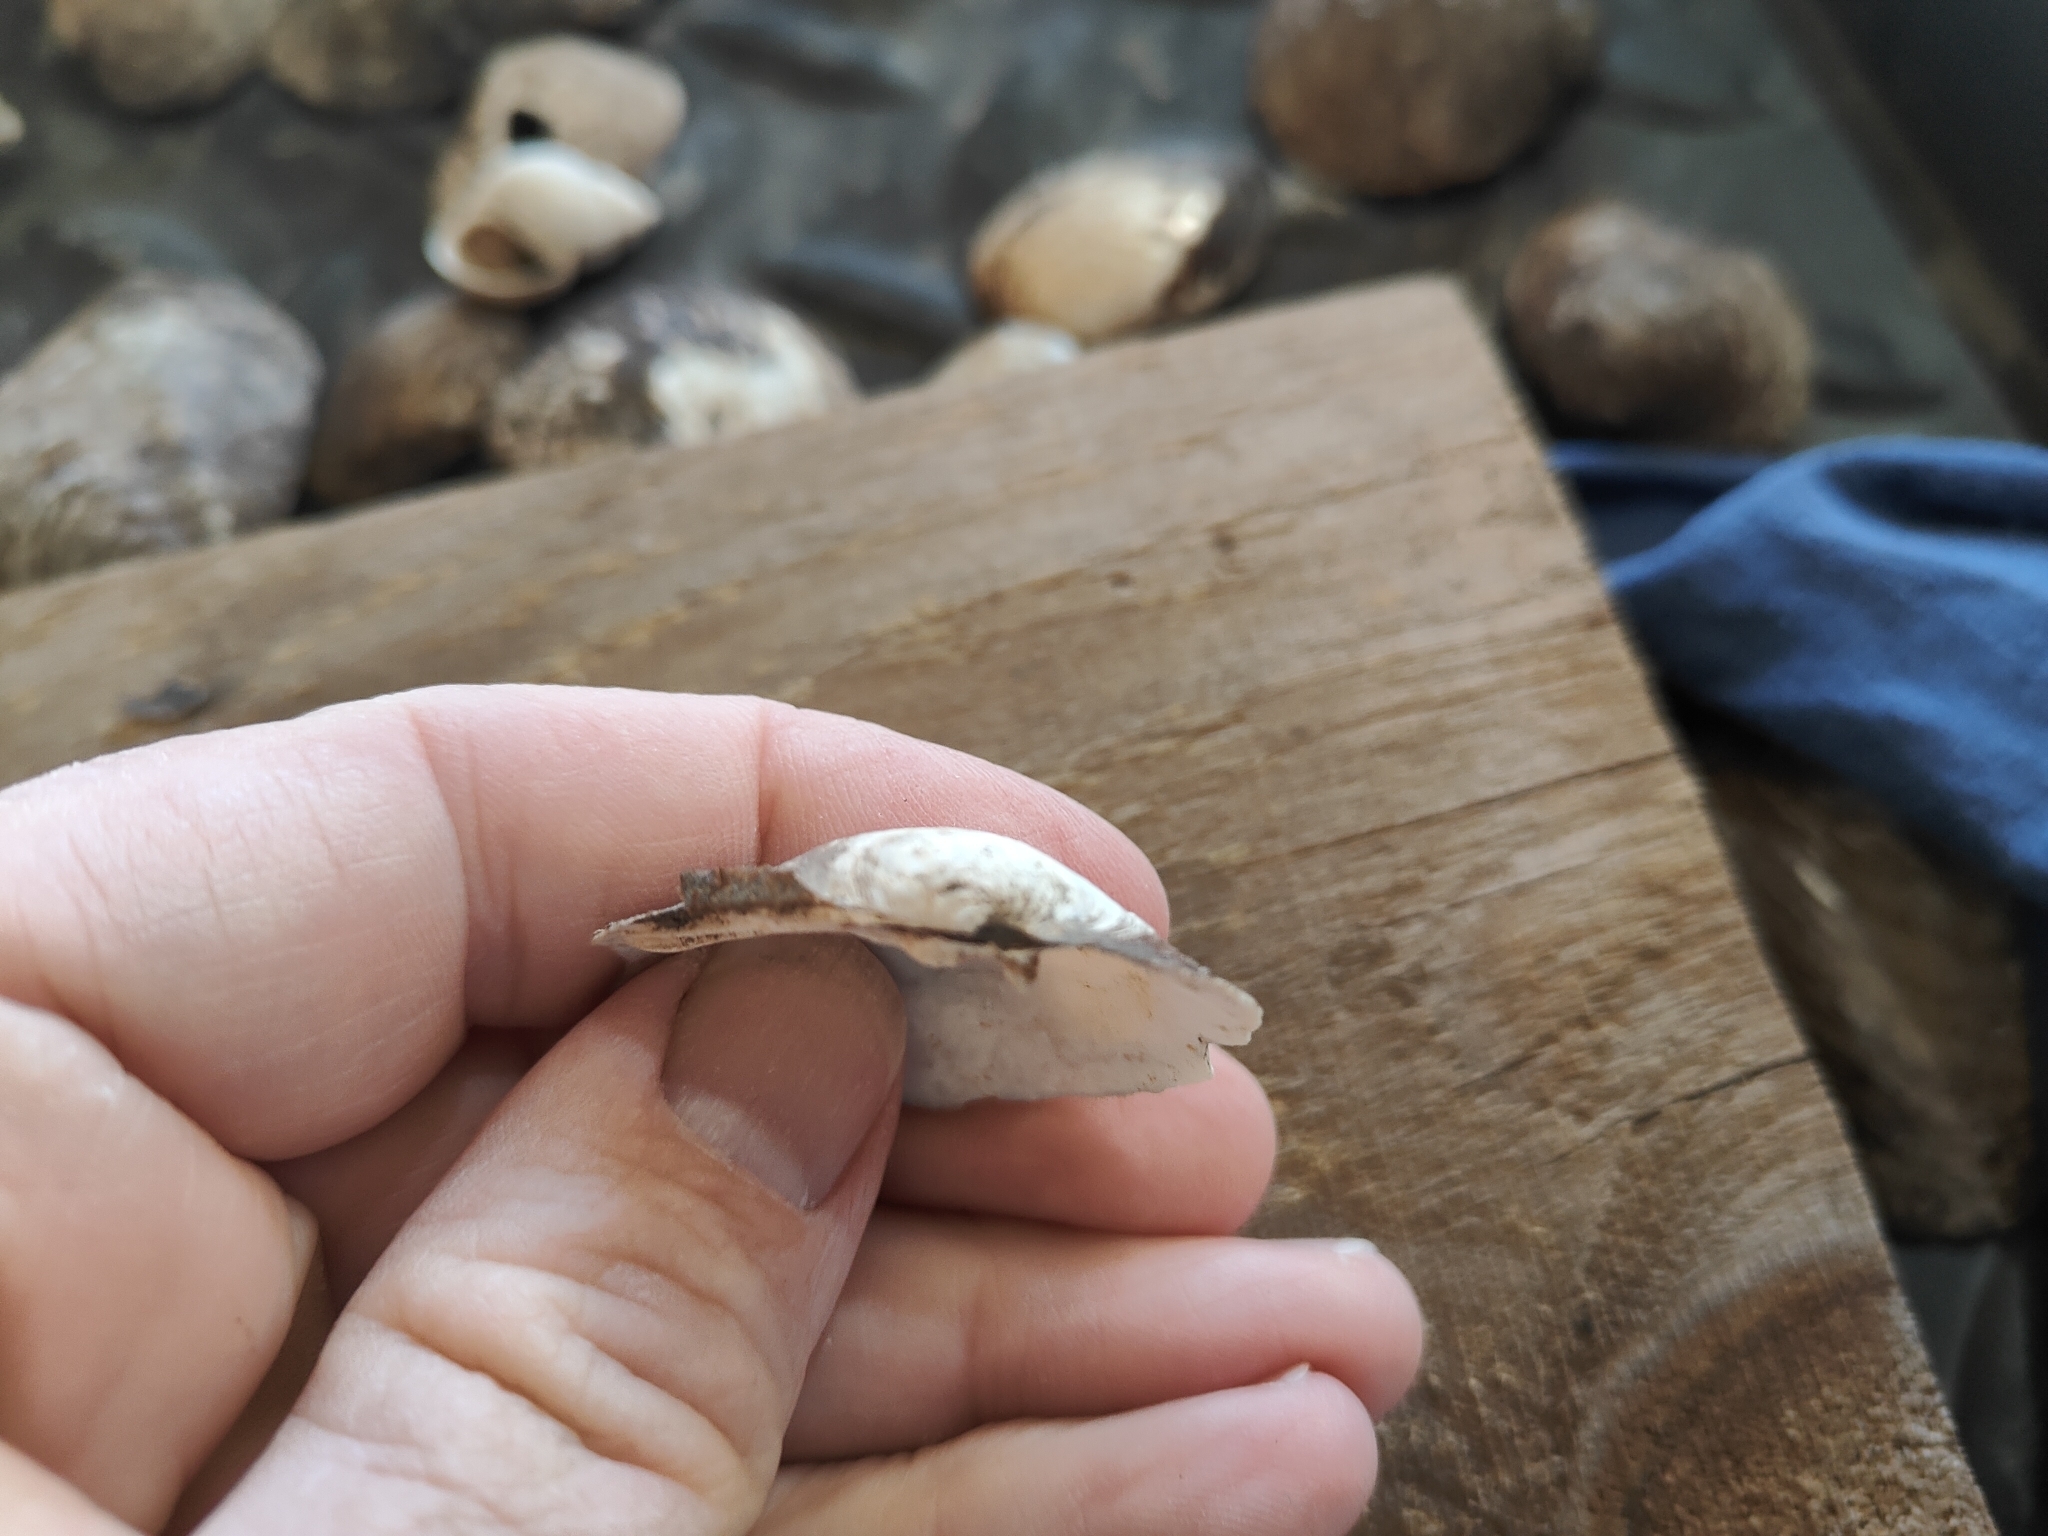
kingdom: Animalia
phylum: Mollusca
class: Bivalvia
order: Unionida
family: Unionidae
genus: Amblema
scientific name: Amblema plicata
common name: Threeridge
